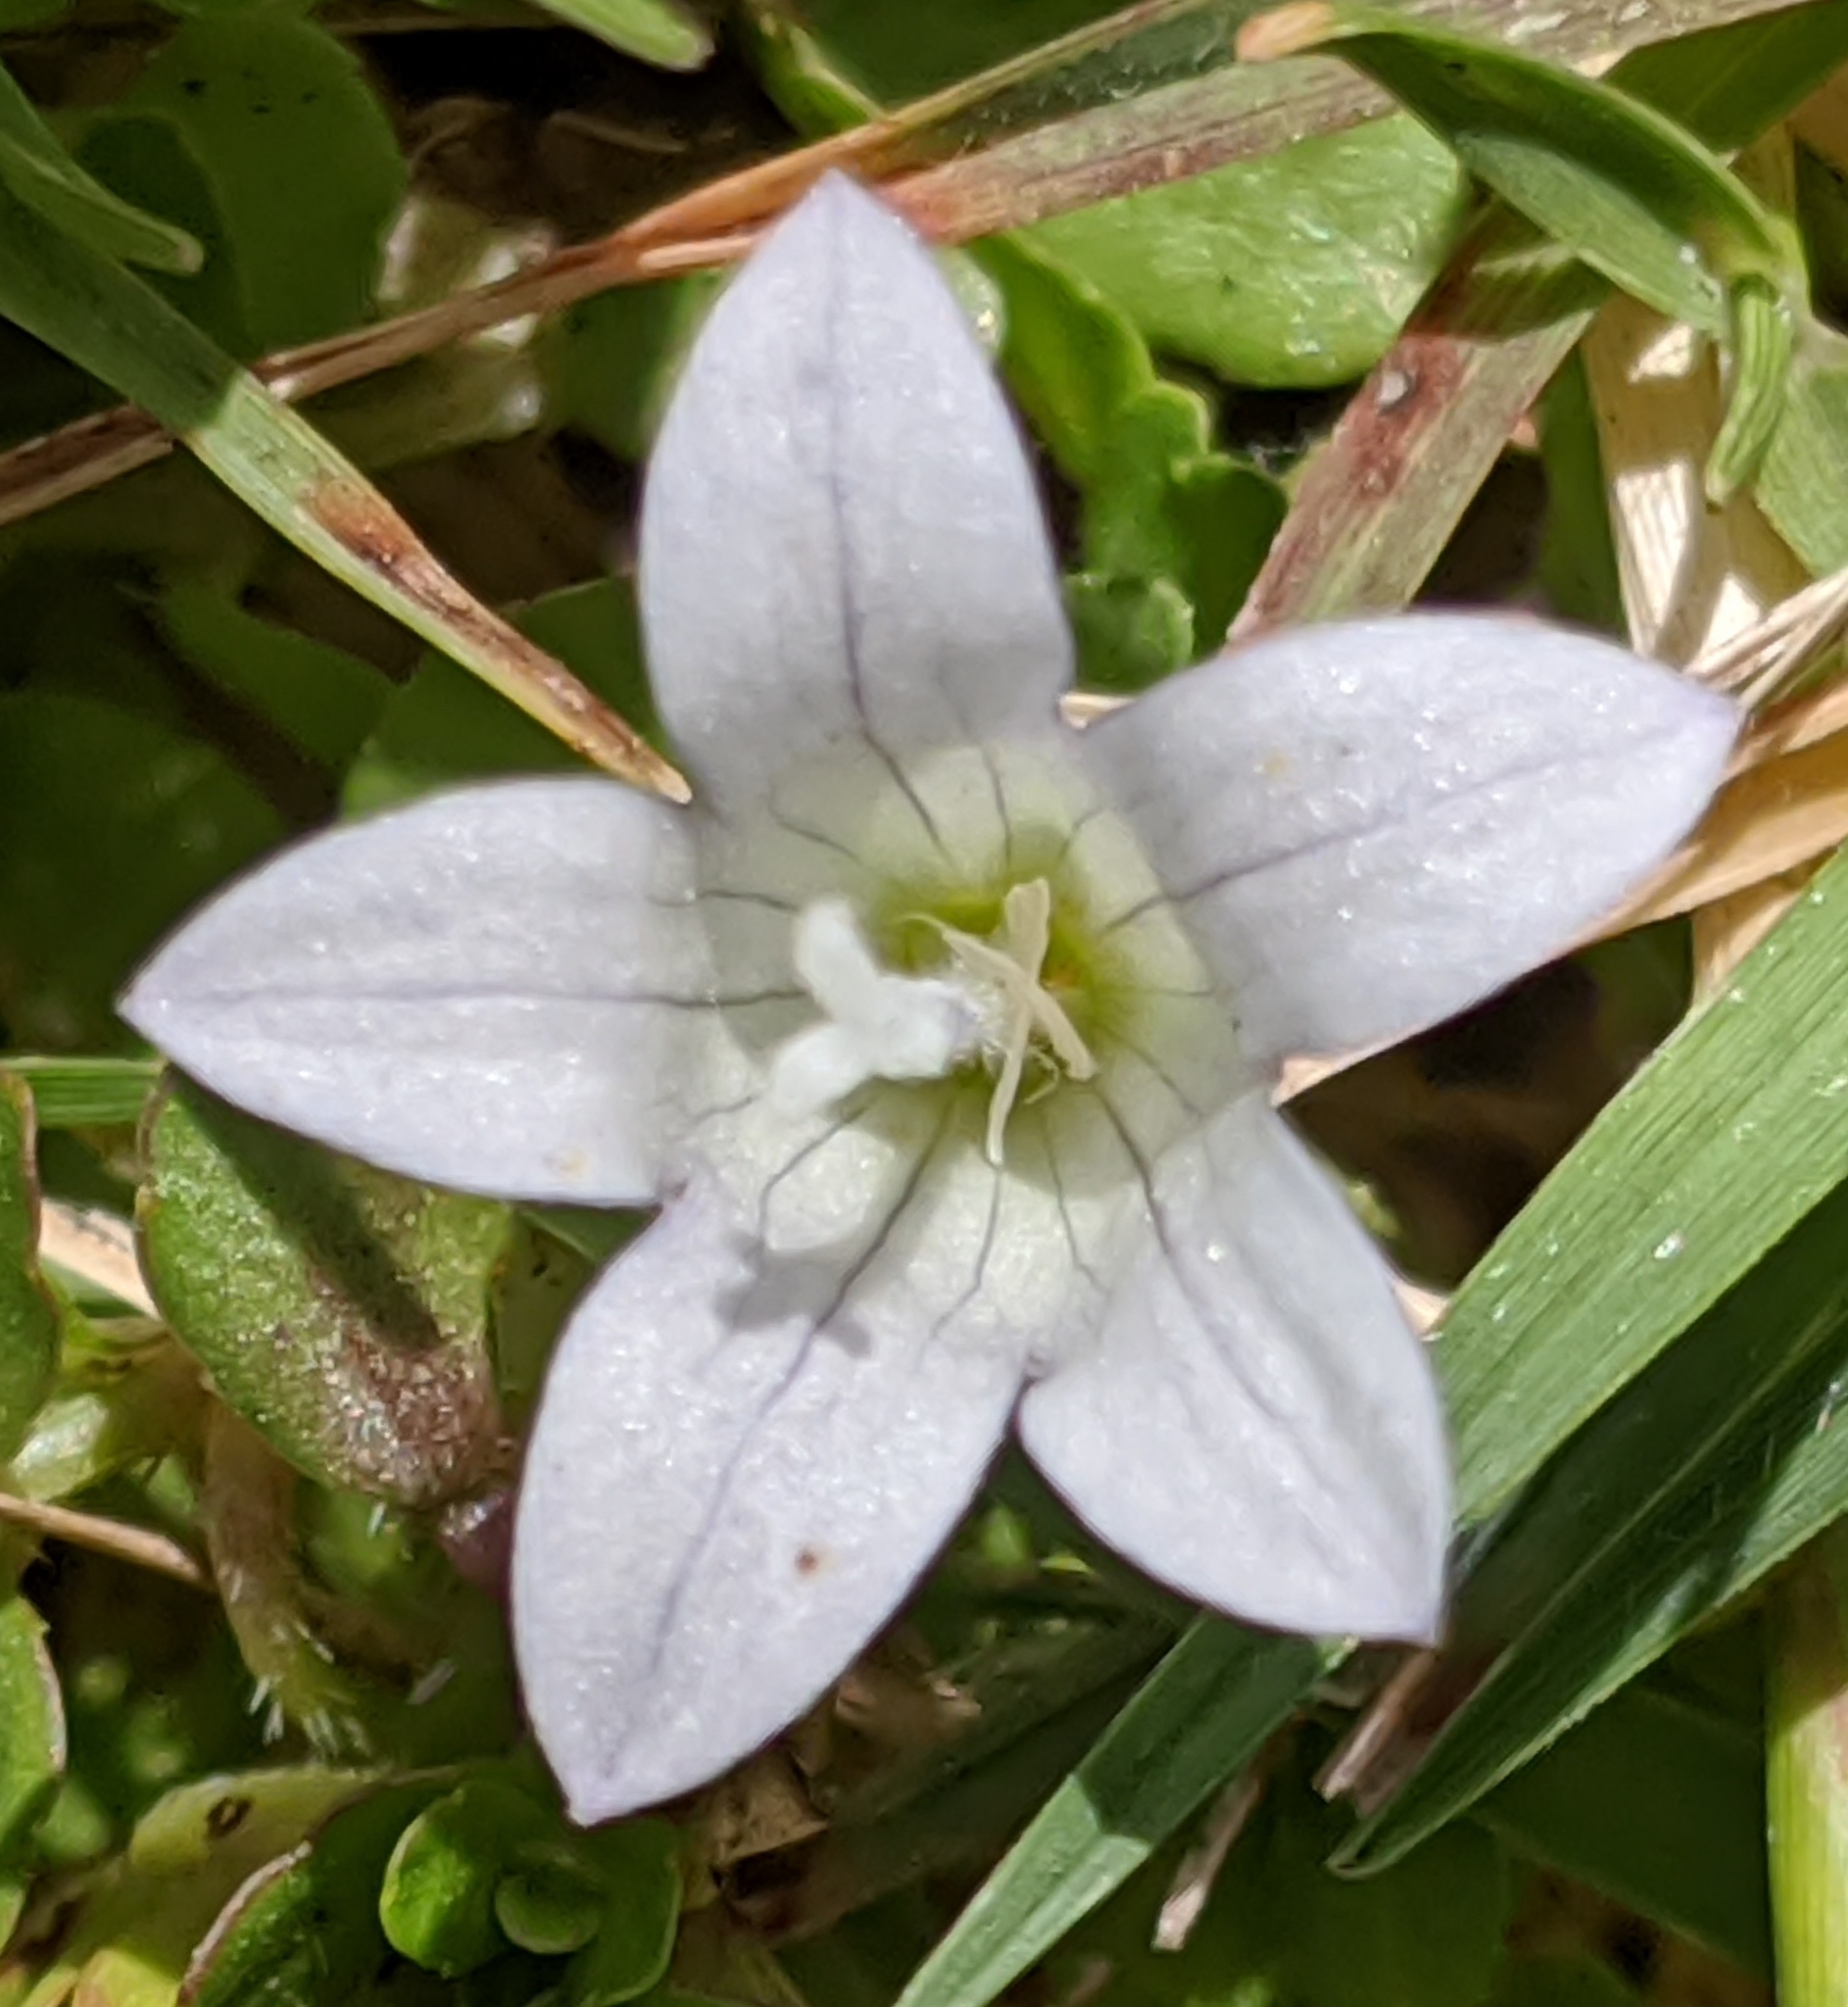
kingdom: Plantae
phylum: Tracheophyta
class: Magnoliopsida
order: Asterales
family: Campanulaceae
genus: Wahlenbergia
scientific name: Wahlenbergia procumbens
